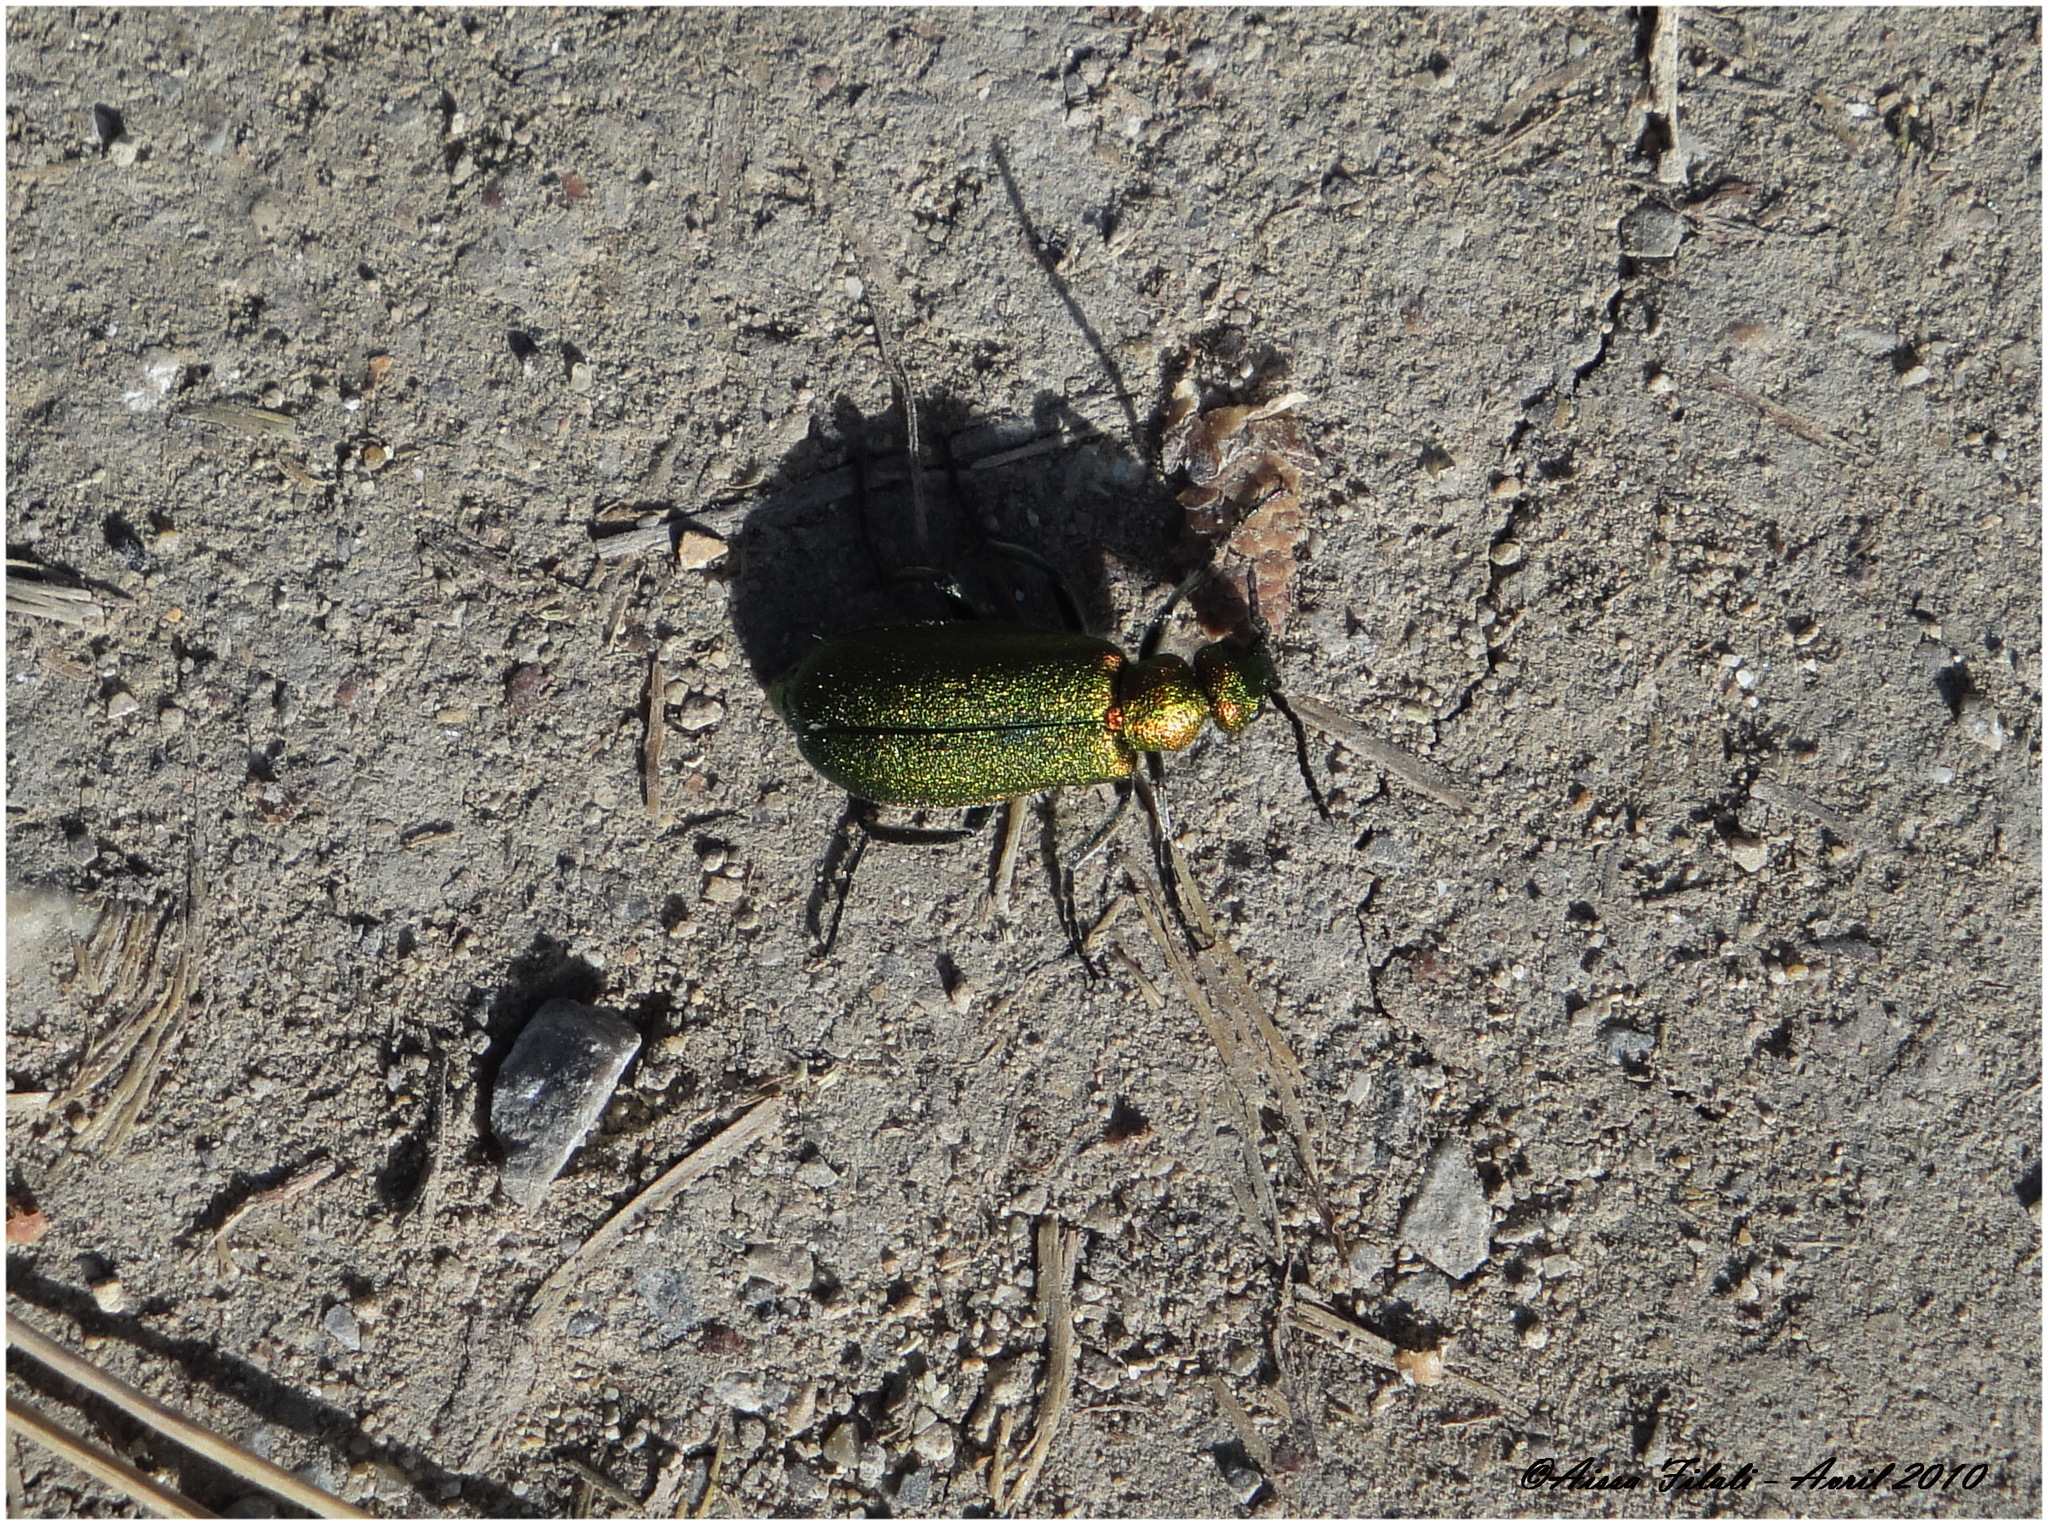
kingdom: Animalia
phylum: Arthropoda
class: Insecta
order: Coleoptera
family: Meloidae
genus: Cabalia
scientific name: Cabalia segetum
